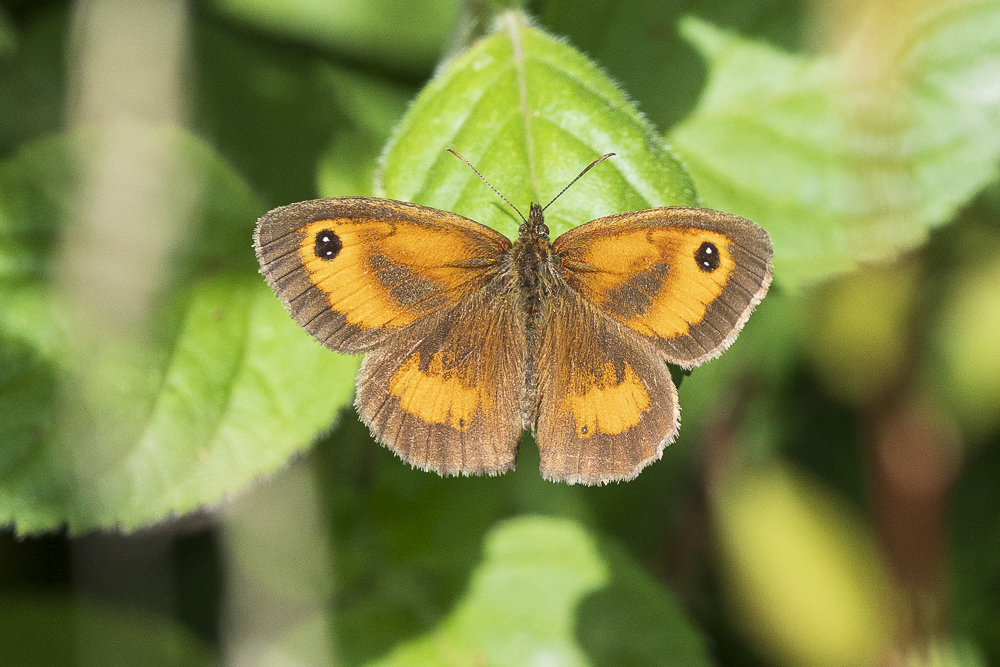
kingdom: Animalia
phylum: Arthropoda
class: Insecta
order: Lepidoptera
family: Nymphalidae
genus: Pyronia
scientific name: Pyronia tithonus
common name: Gatekeeper
